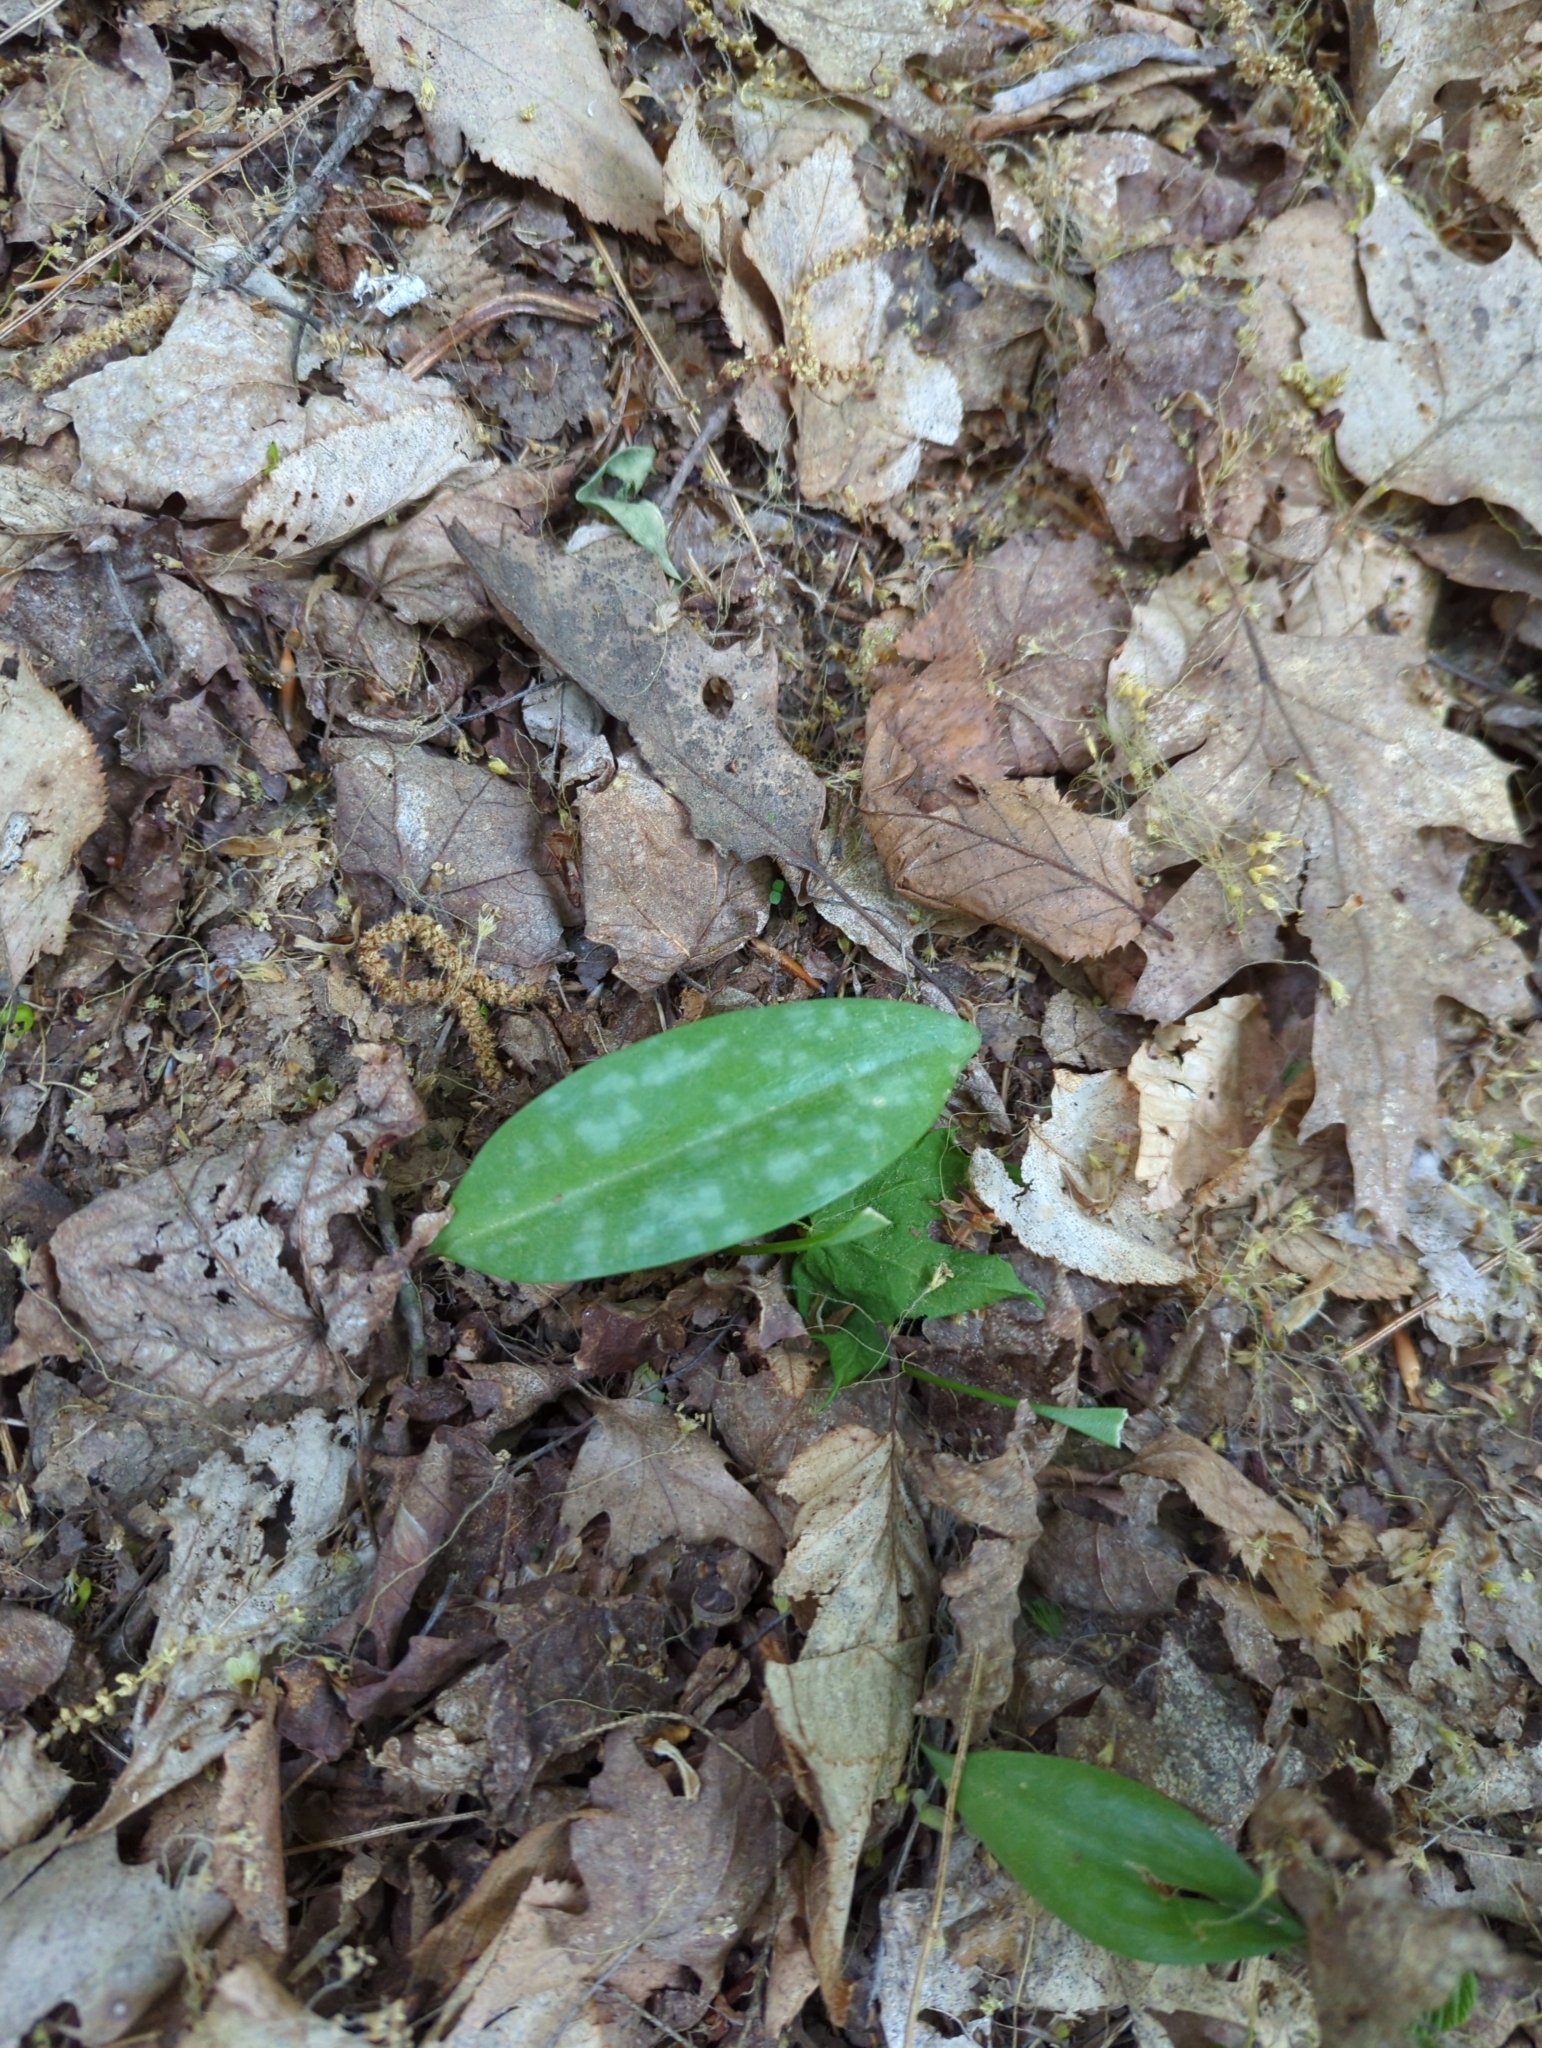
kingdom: Plantae
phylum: Tracheophyta
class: Liliopsida
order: Liliales
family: Liliaceae
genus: Erythronium
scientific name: Erythronium americanum
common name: Yellow adder's-tongue
